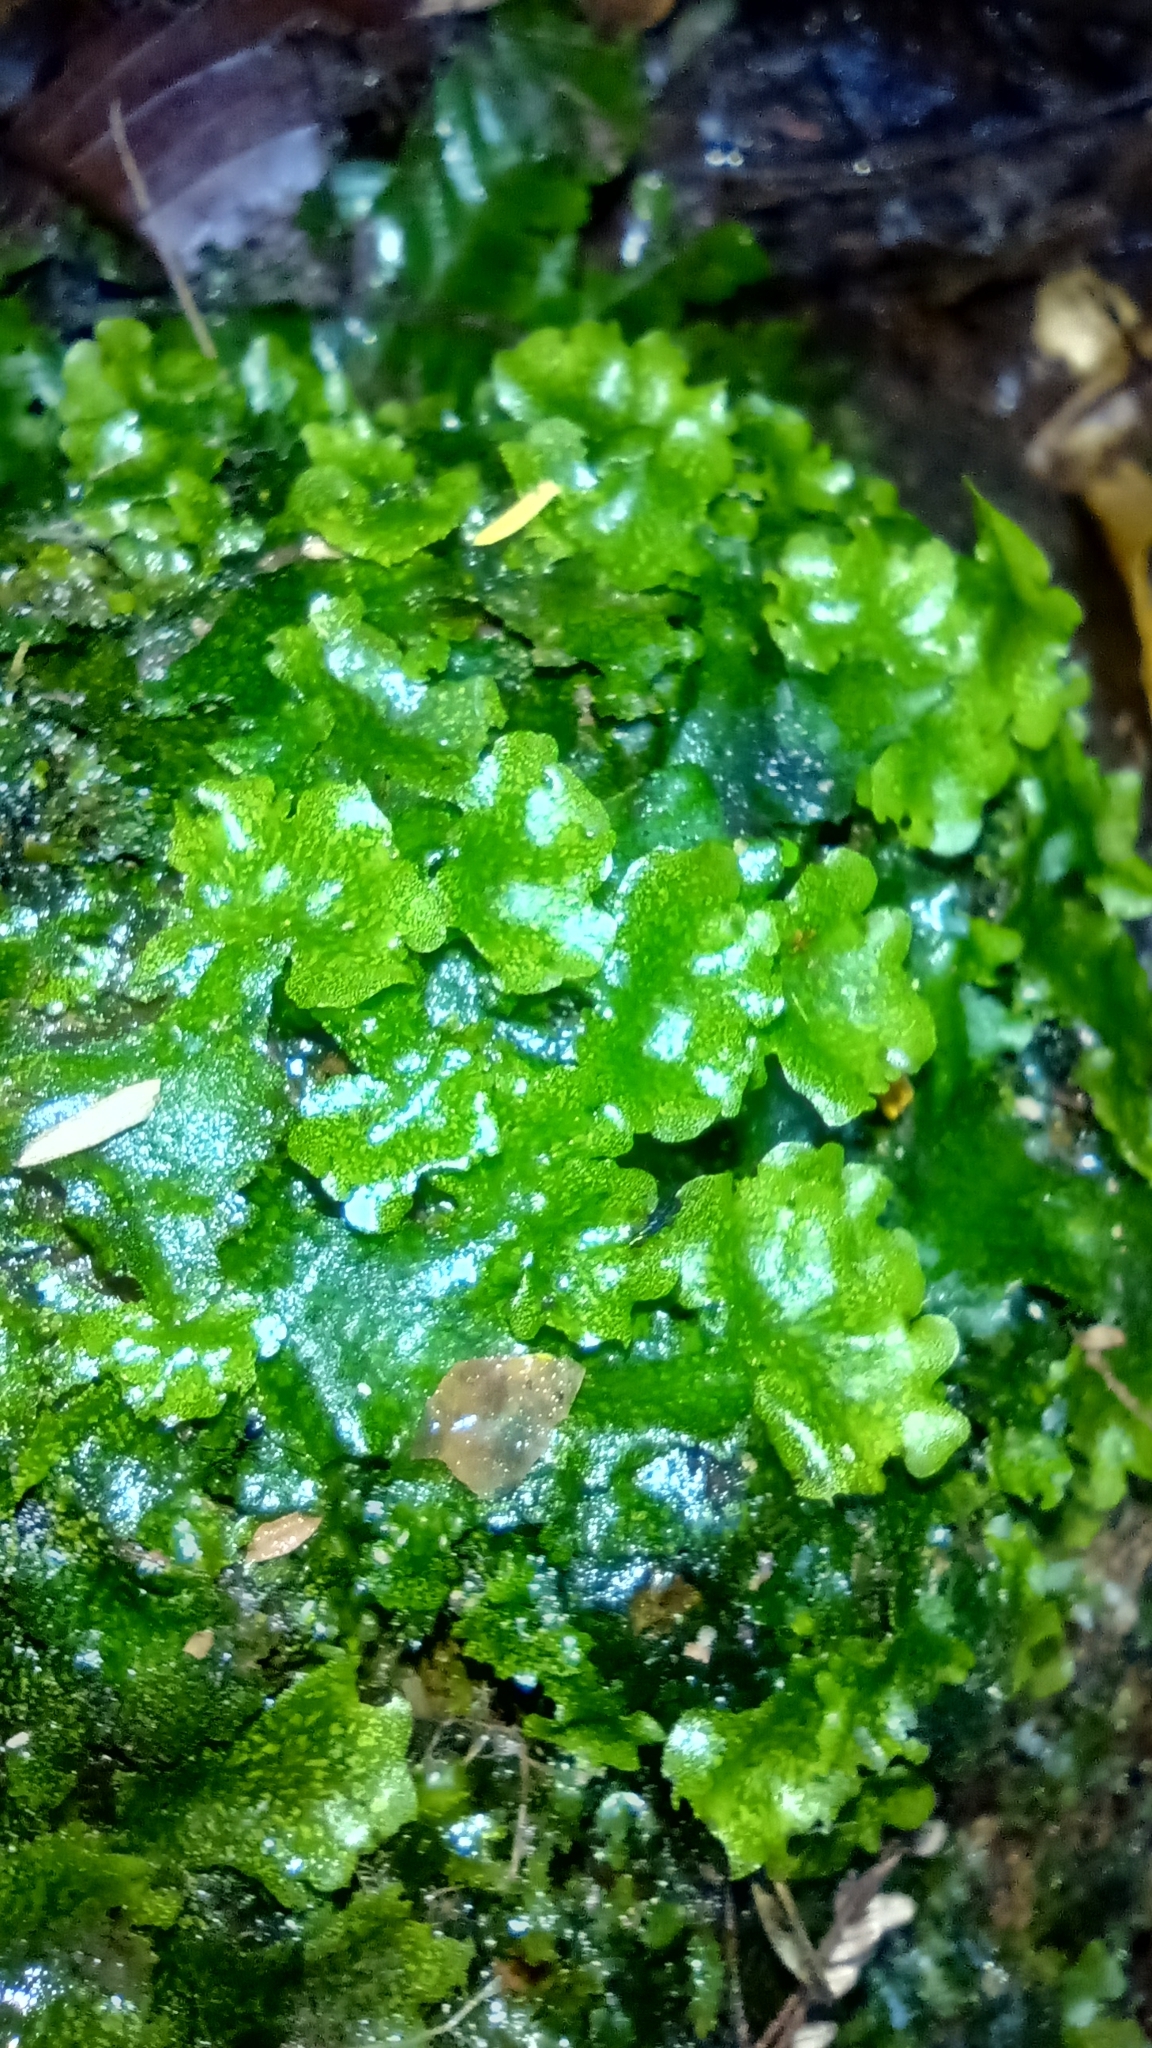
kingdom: Plantae
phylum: Marchantiophyta
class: Marchantiopsida
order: Marchantiales
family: Monocleaceae
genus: Monoclea
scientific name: Monoclea gottschei
